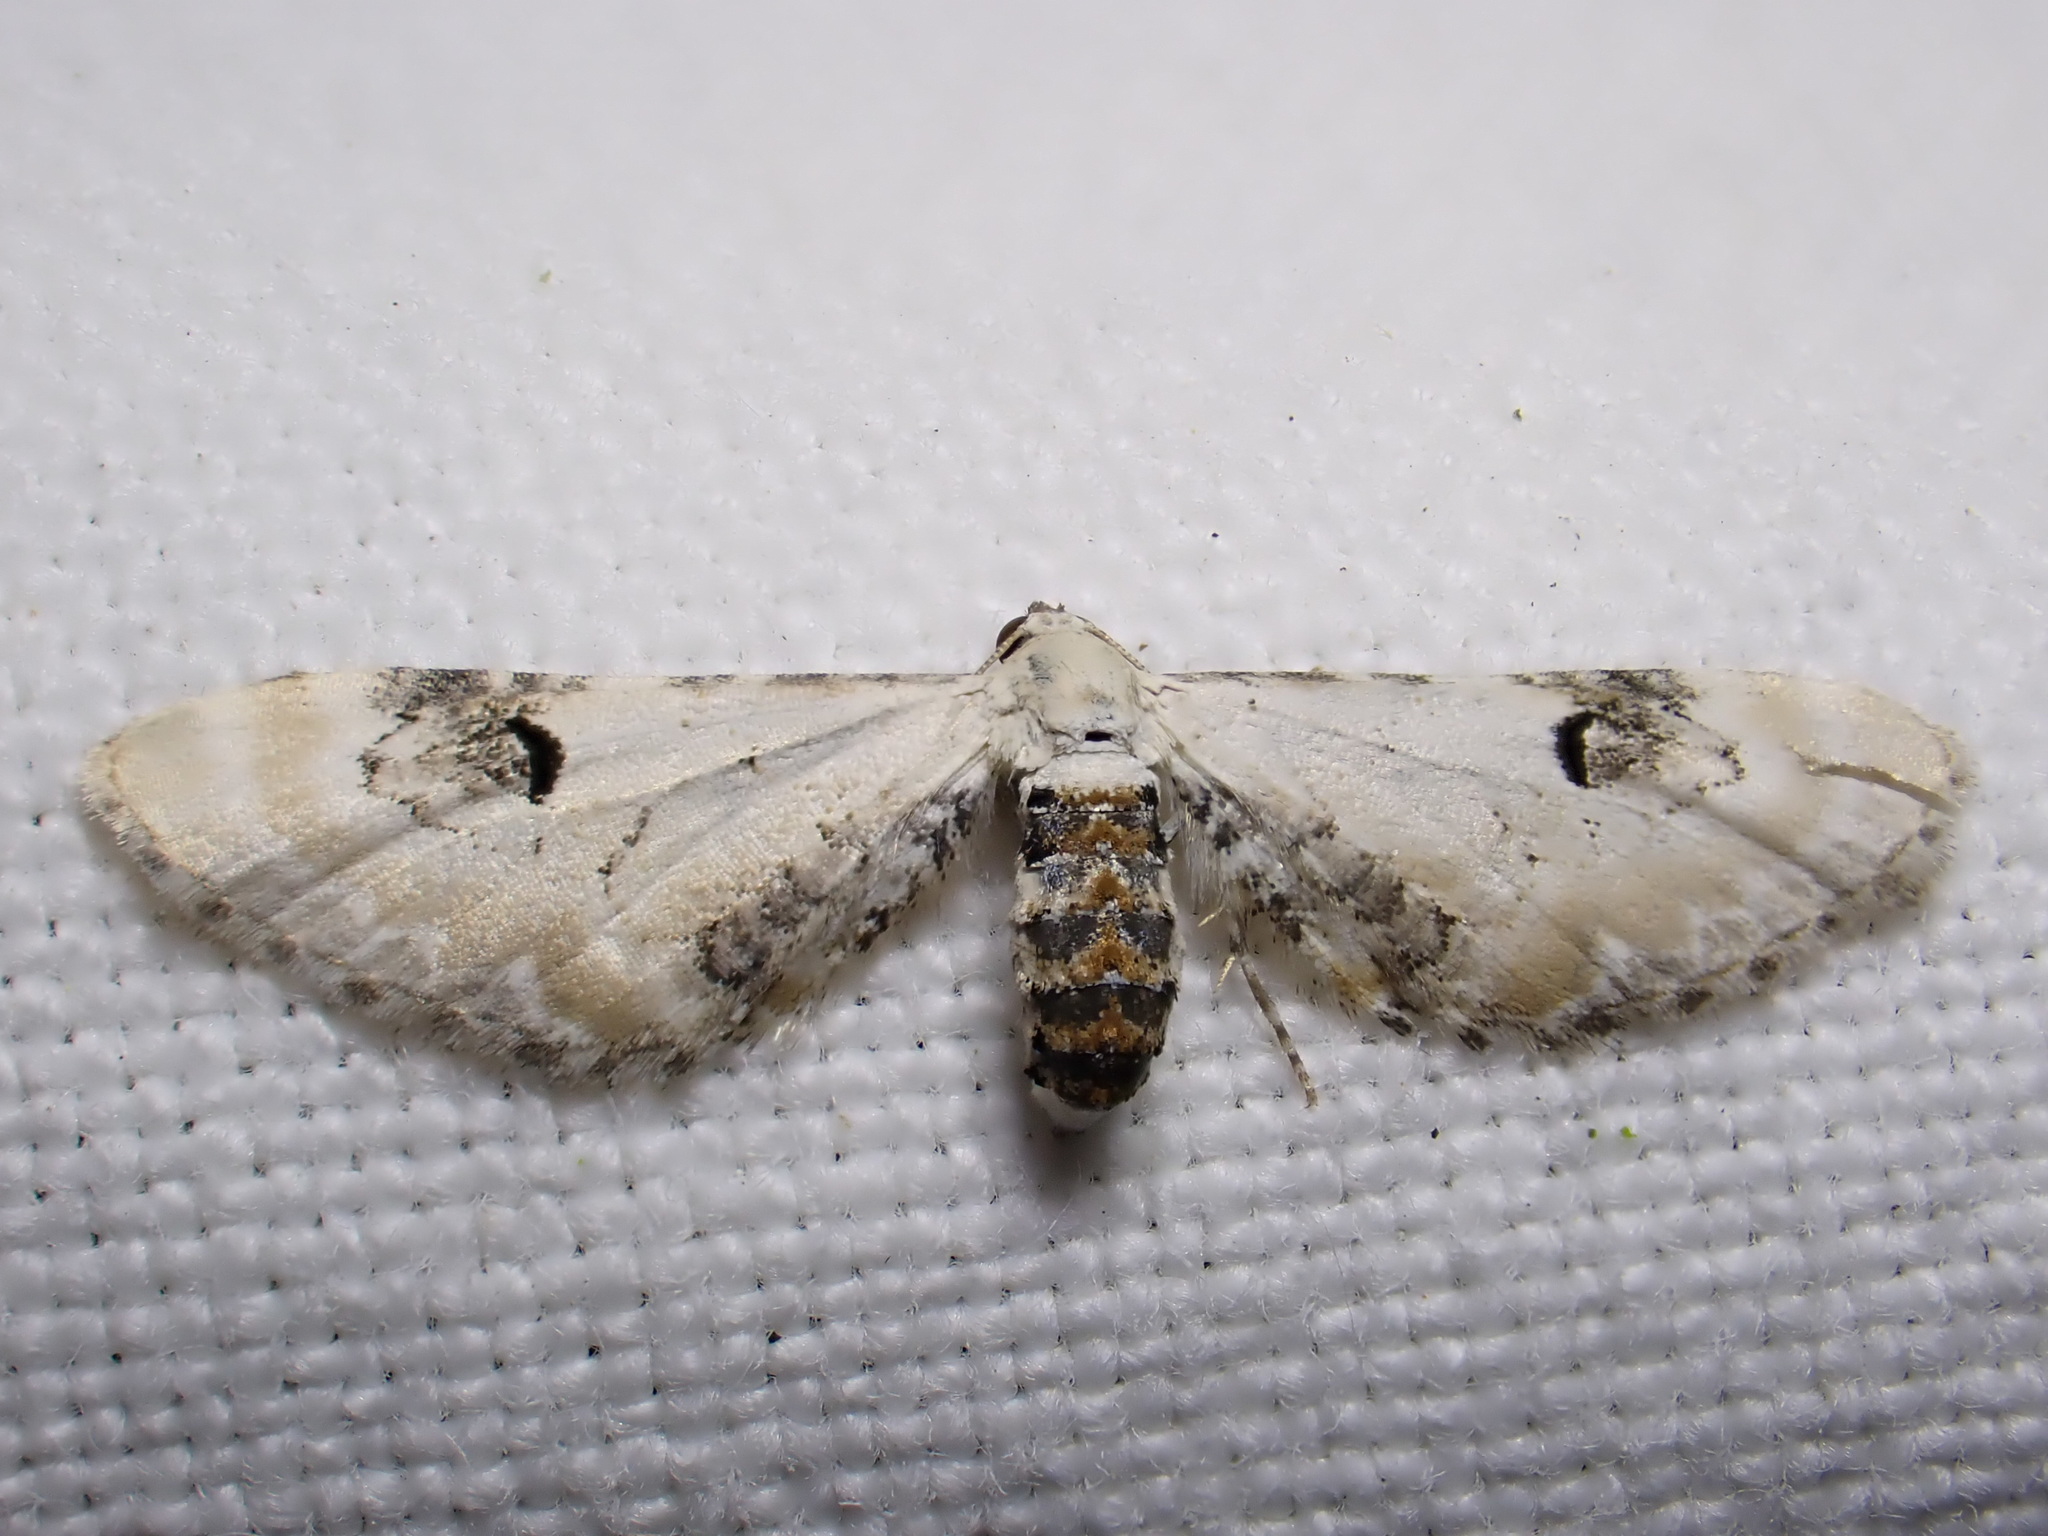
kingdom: Animalia
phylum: Arthropoda
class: Insecta
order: Lepidoptera
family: Geometridae
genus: Eupithecia
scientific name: Eupithecia centaureata
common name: Lime-speck pug
